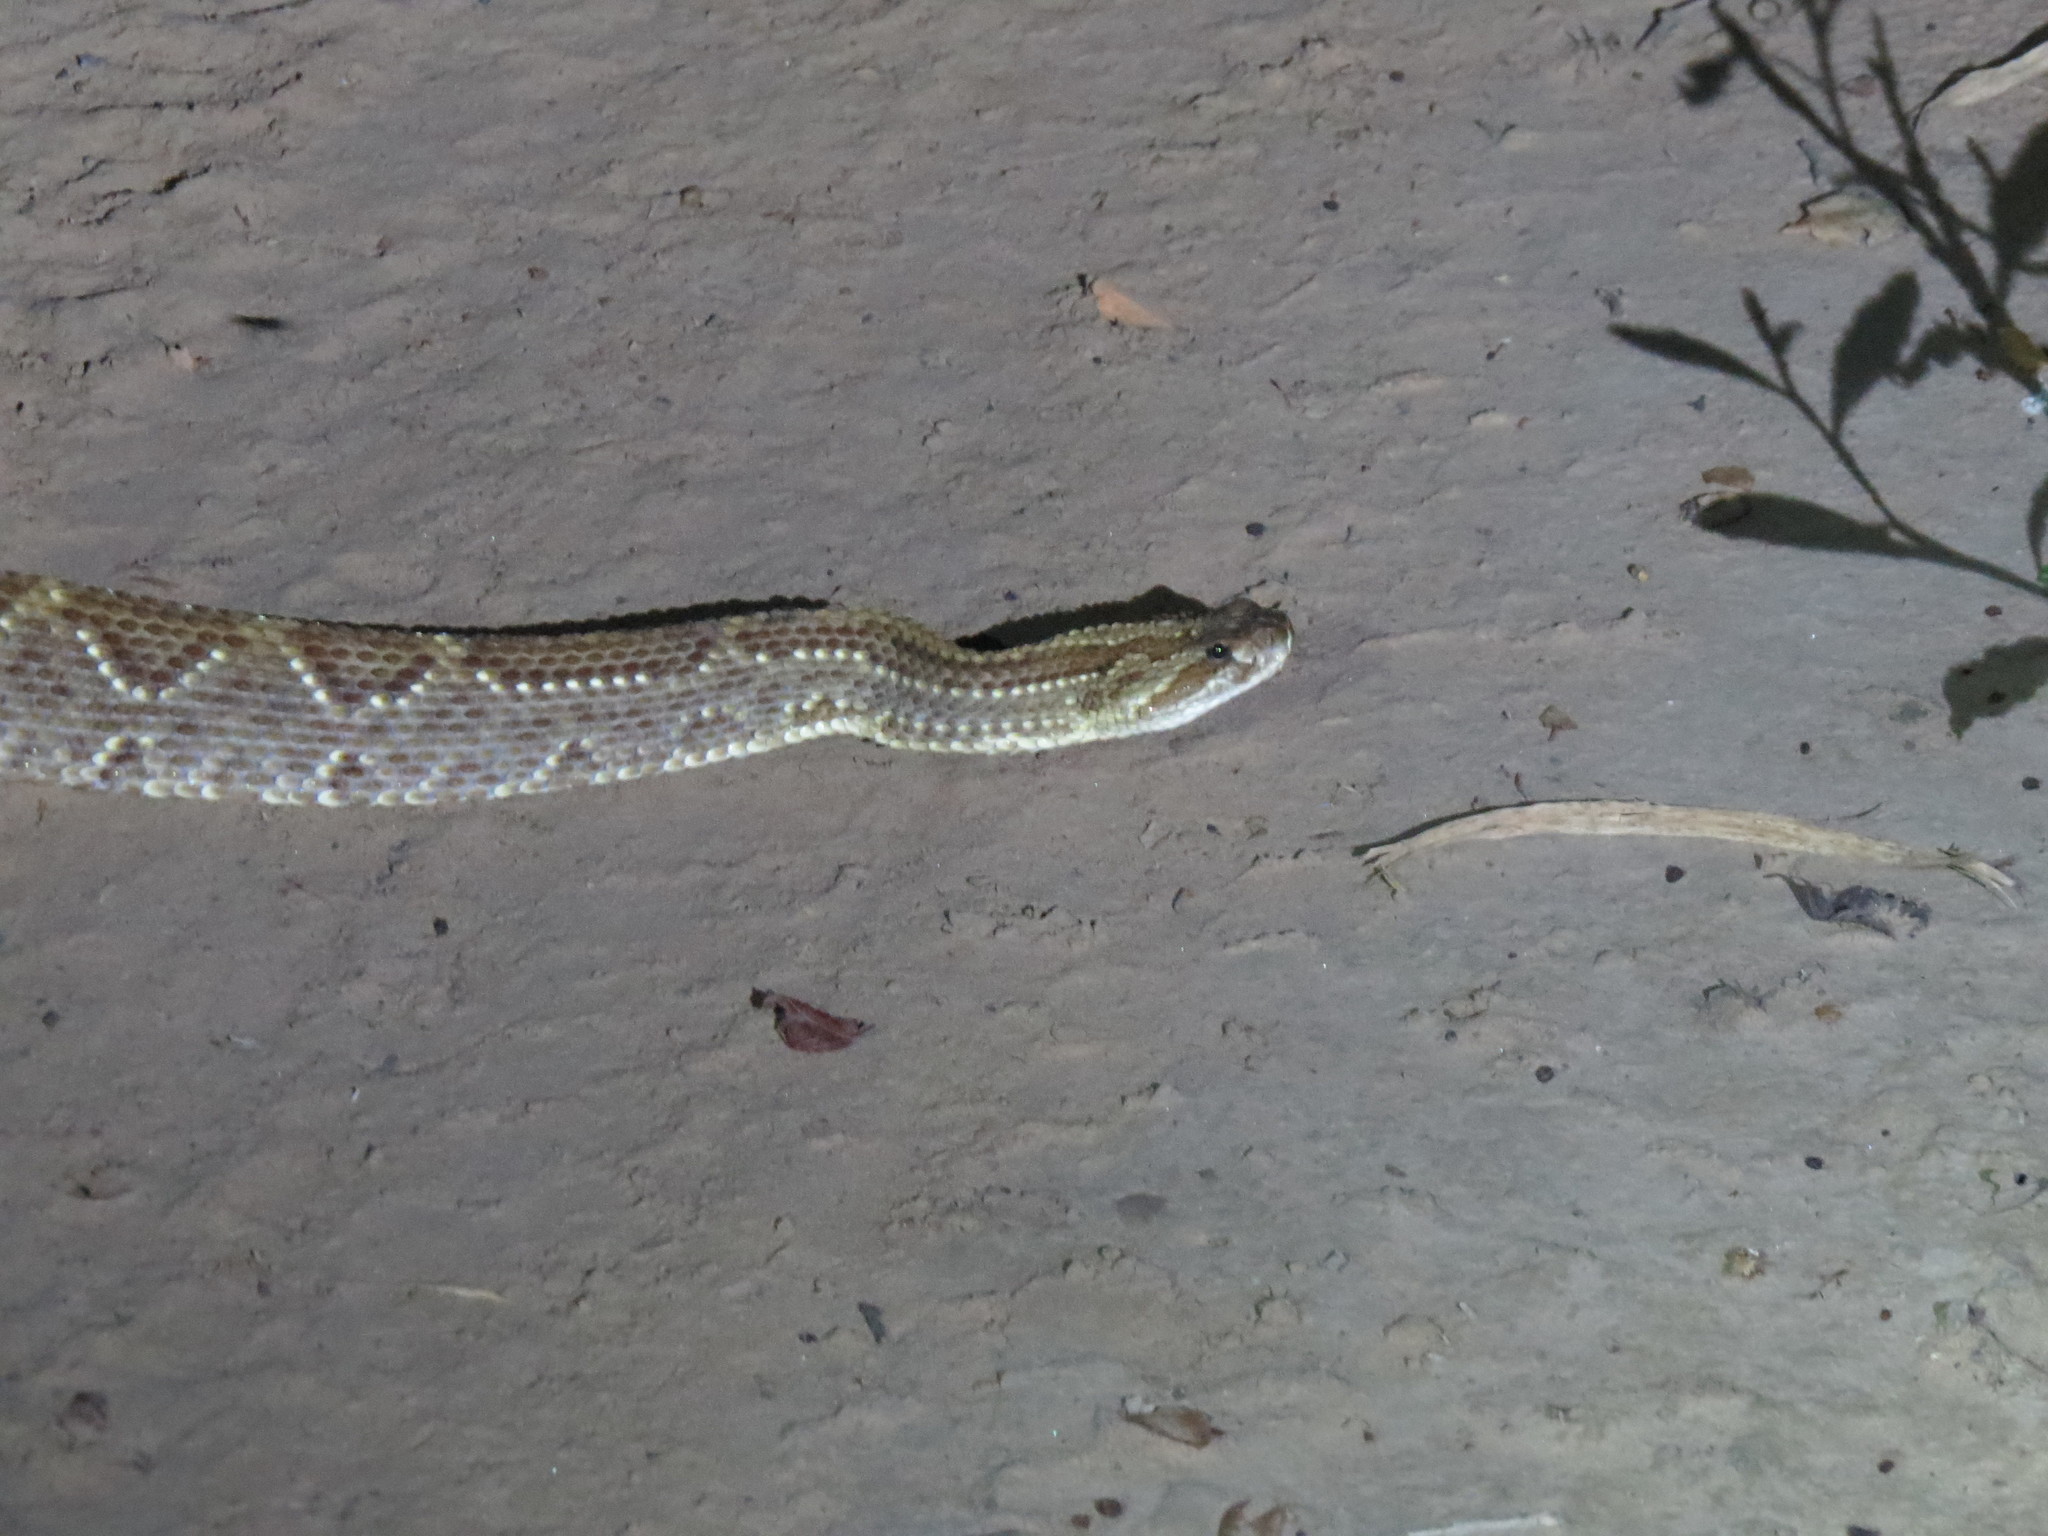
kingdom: Animalia
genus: Crotalus
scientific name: Crotalus durissus
